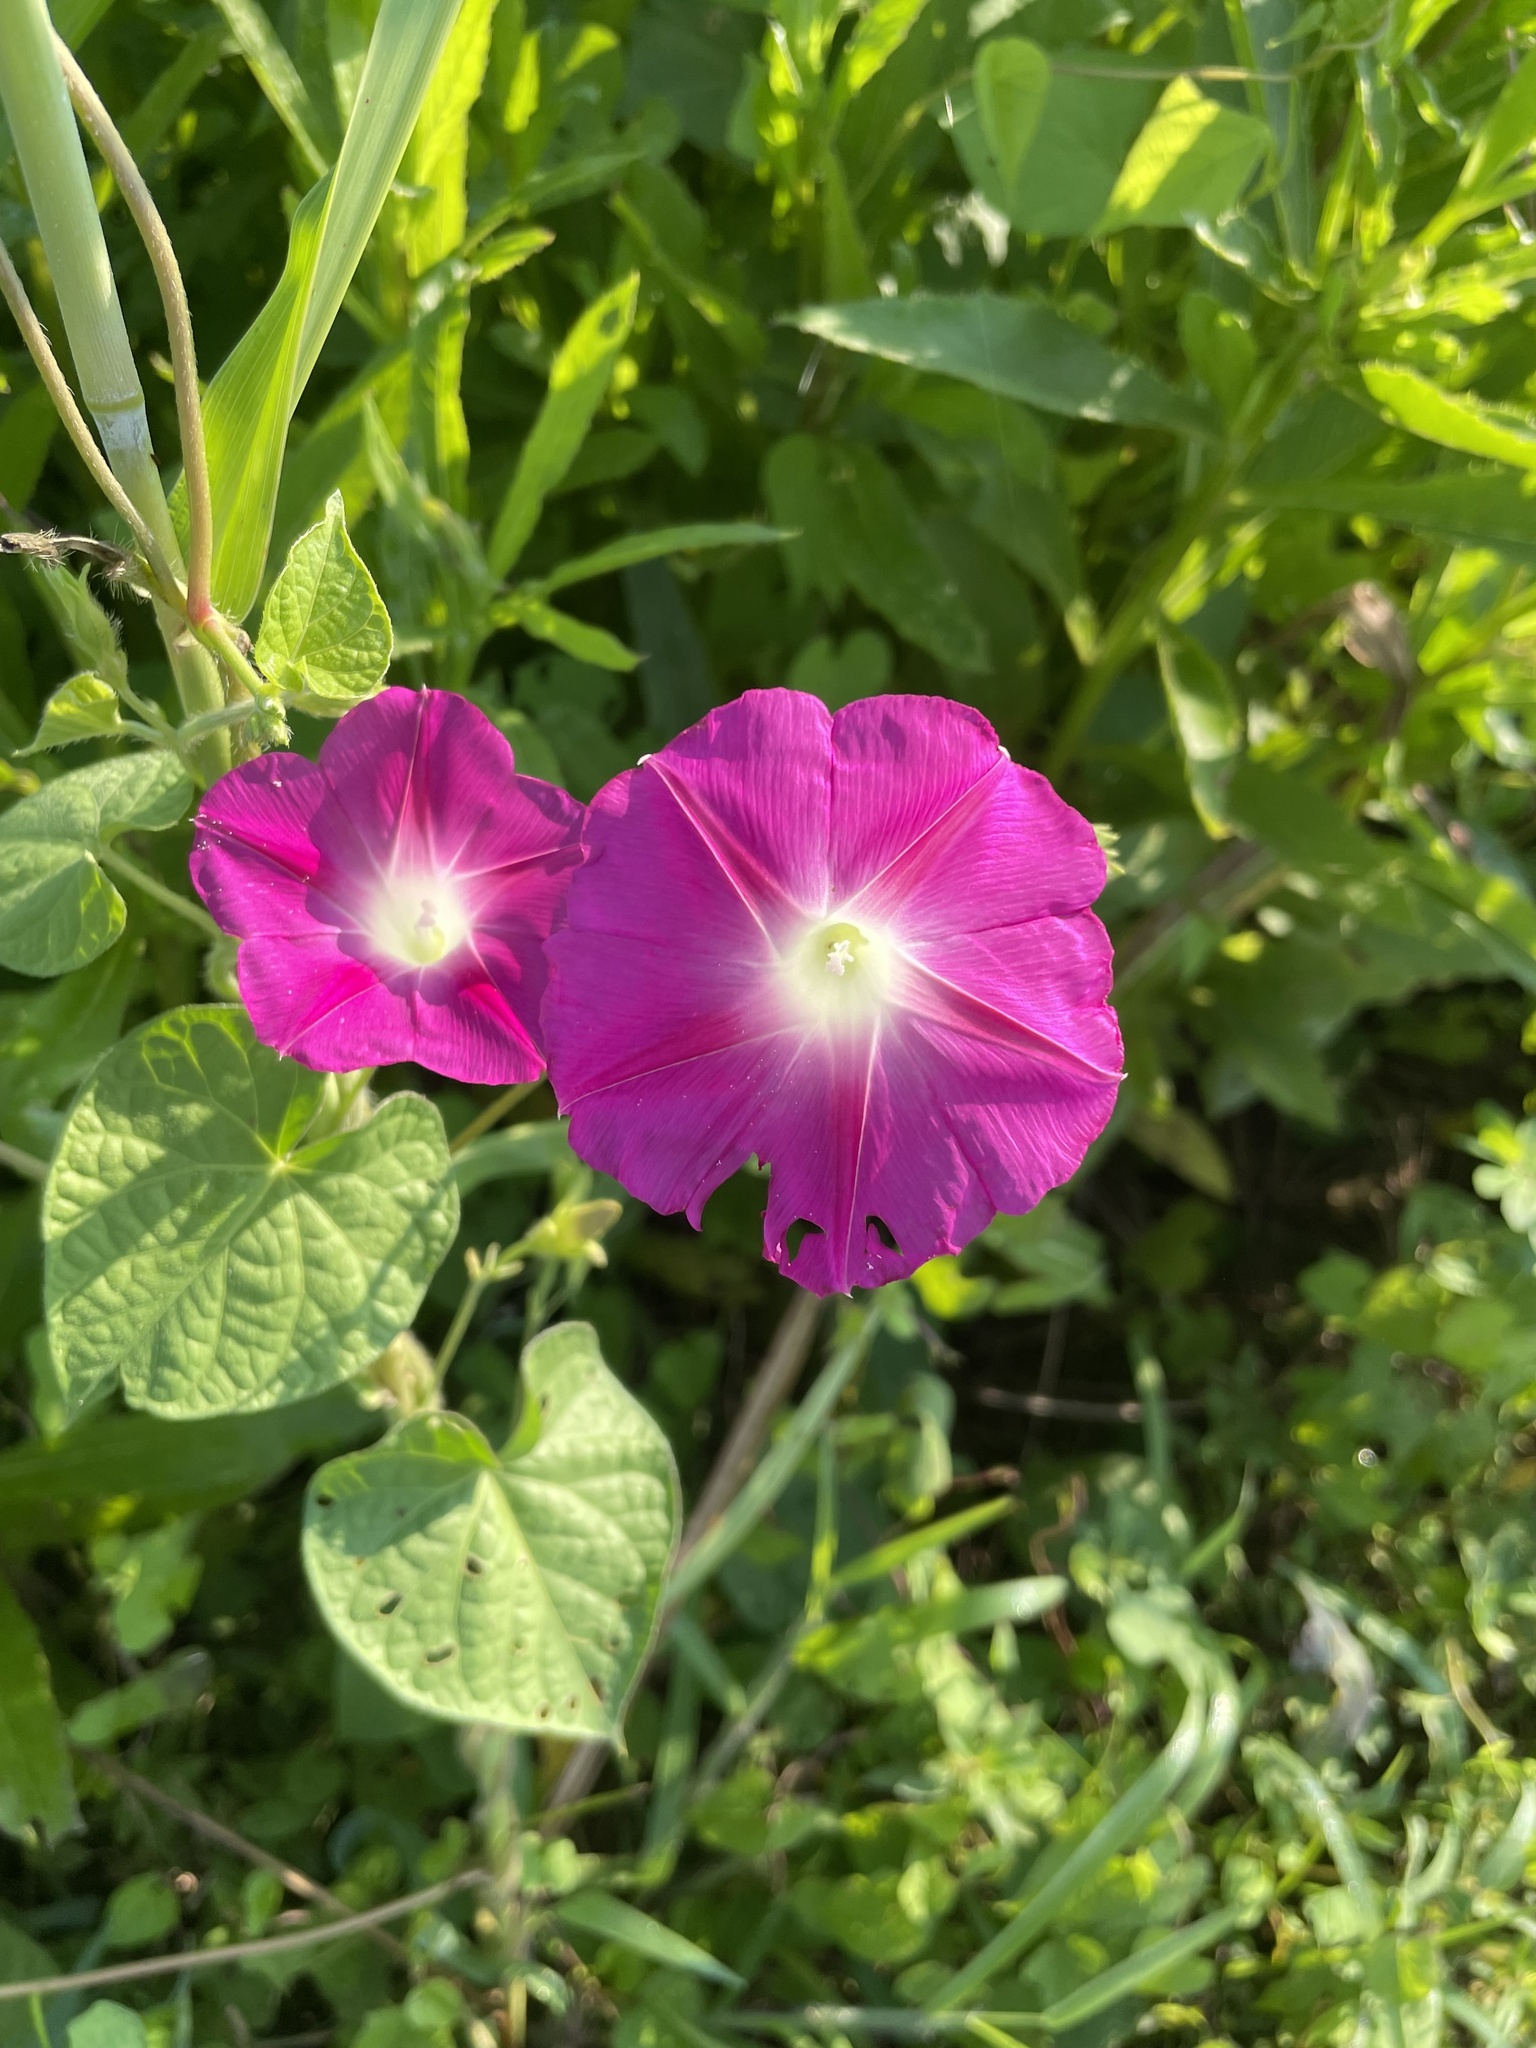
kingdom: Plantae
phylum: Tracheophyta
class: Magnoliopsida
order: Solanales
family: Convolvulaceae
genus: Ipomoea
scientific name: Ipomoea purpurea
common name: Common morning-glory
